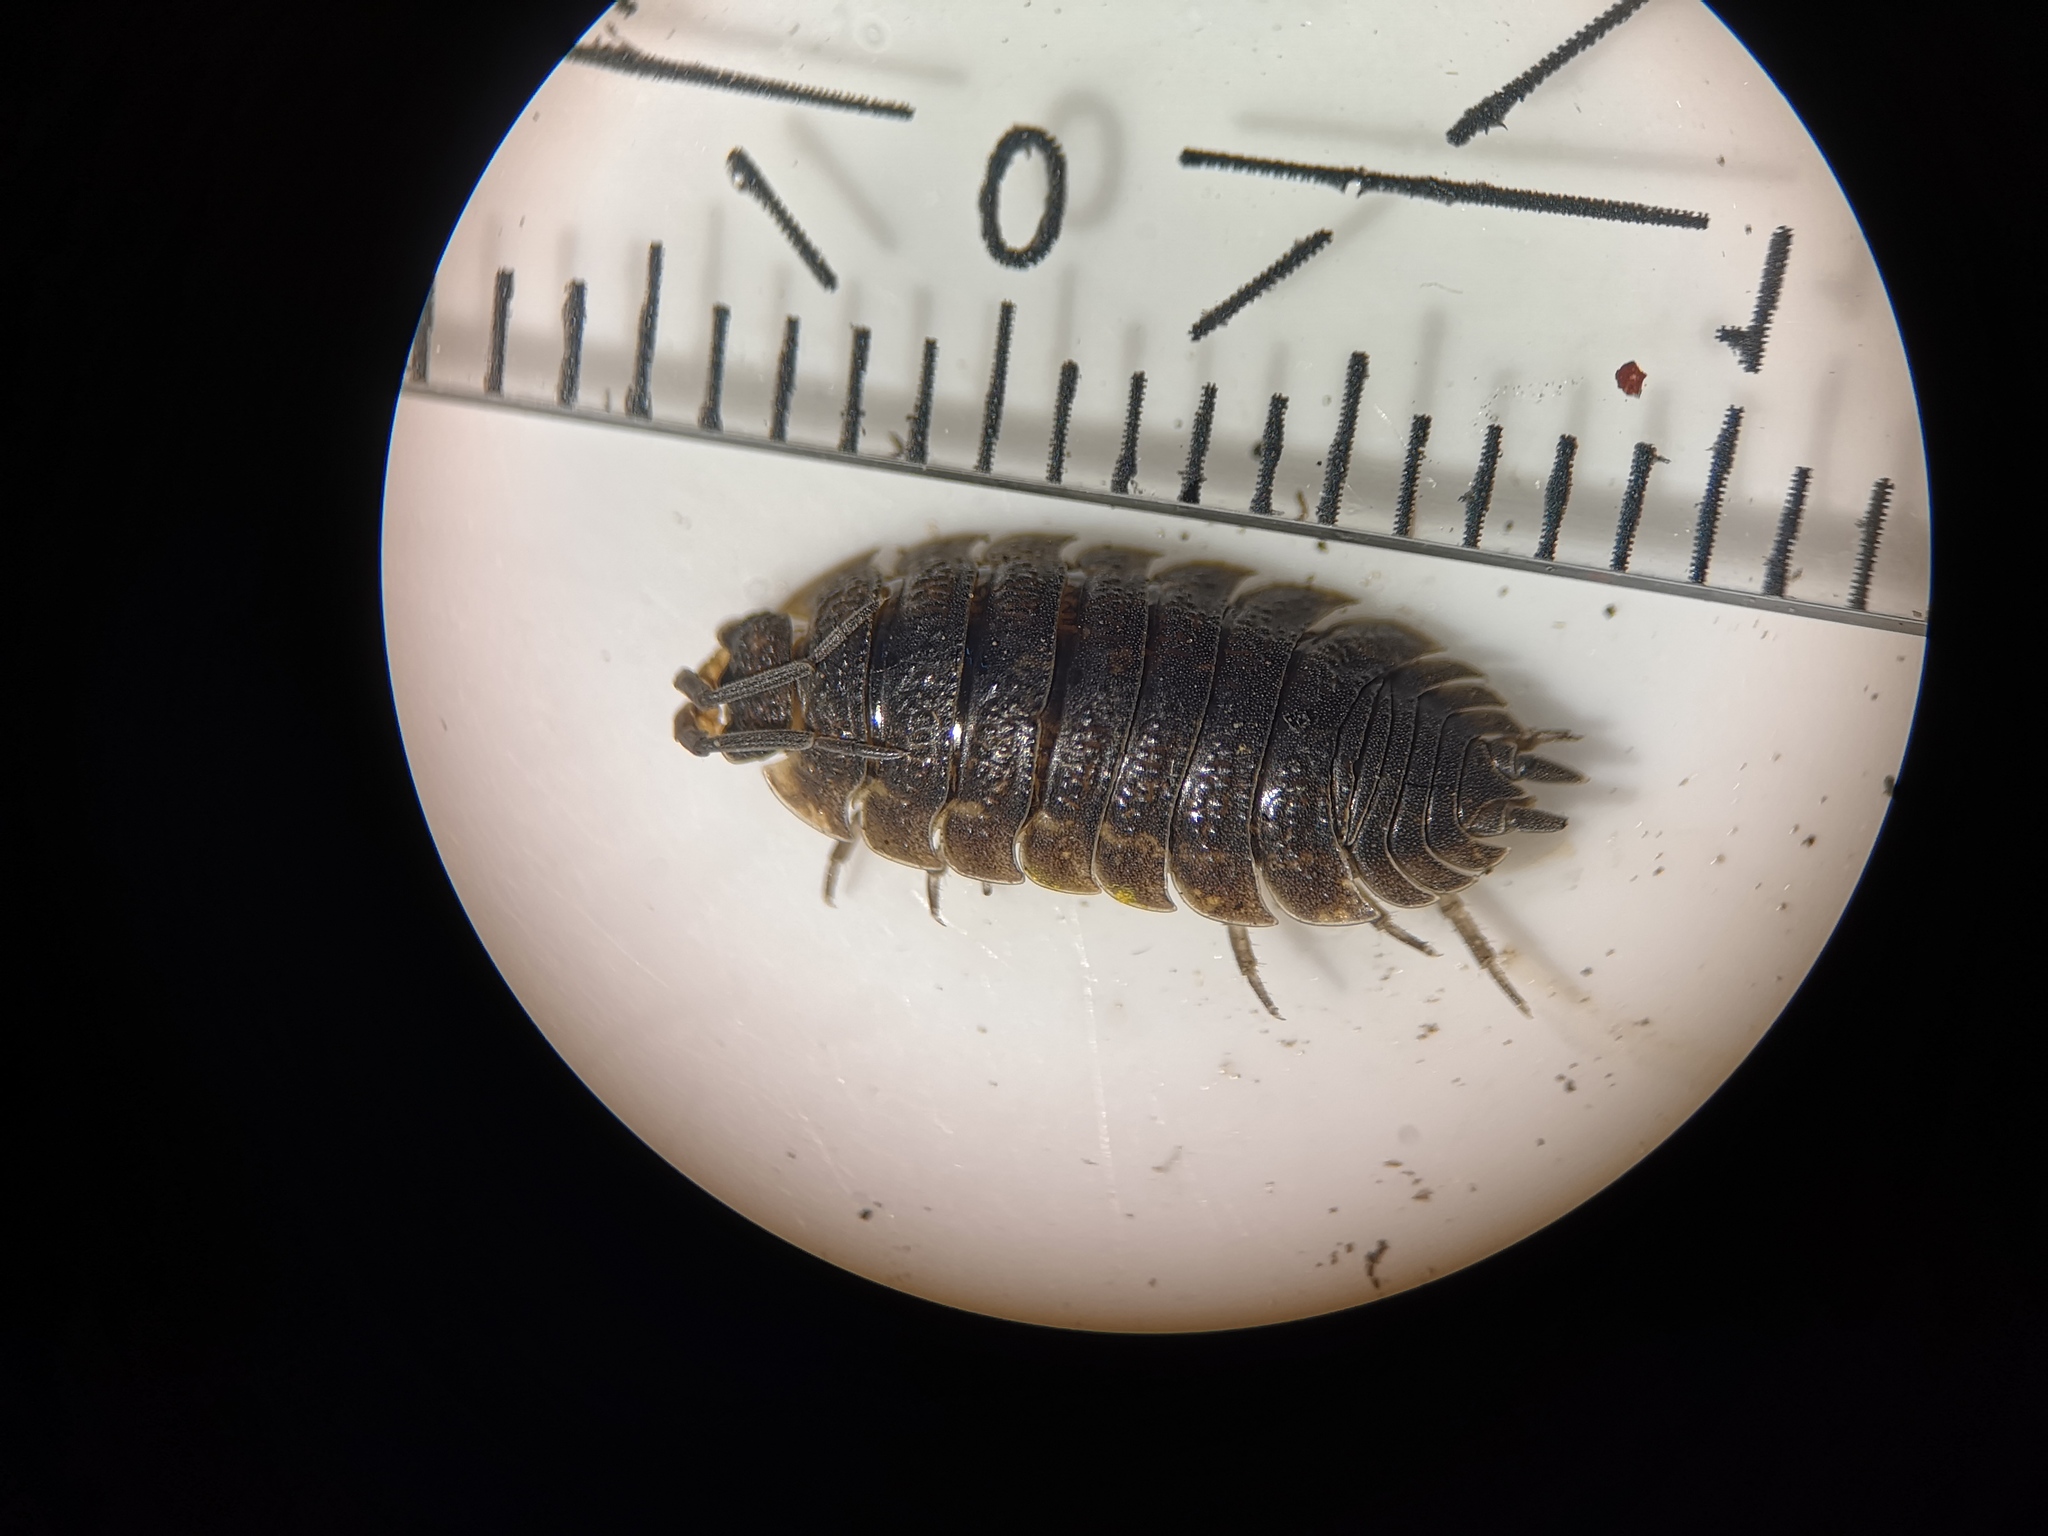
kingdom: Animalia
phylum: Arthropoda
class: Malacostraca
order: Isopoda
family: Porcellionidae
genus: Porcellio
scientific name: Porcellio scaber
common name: Common rough woodlouse
